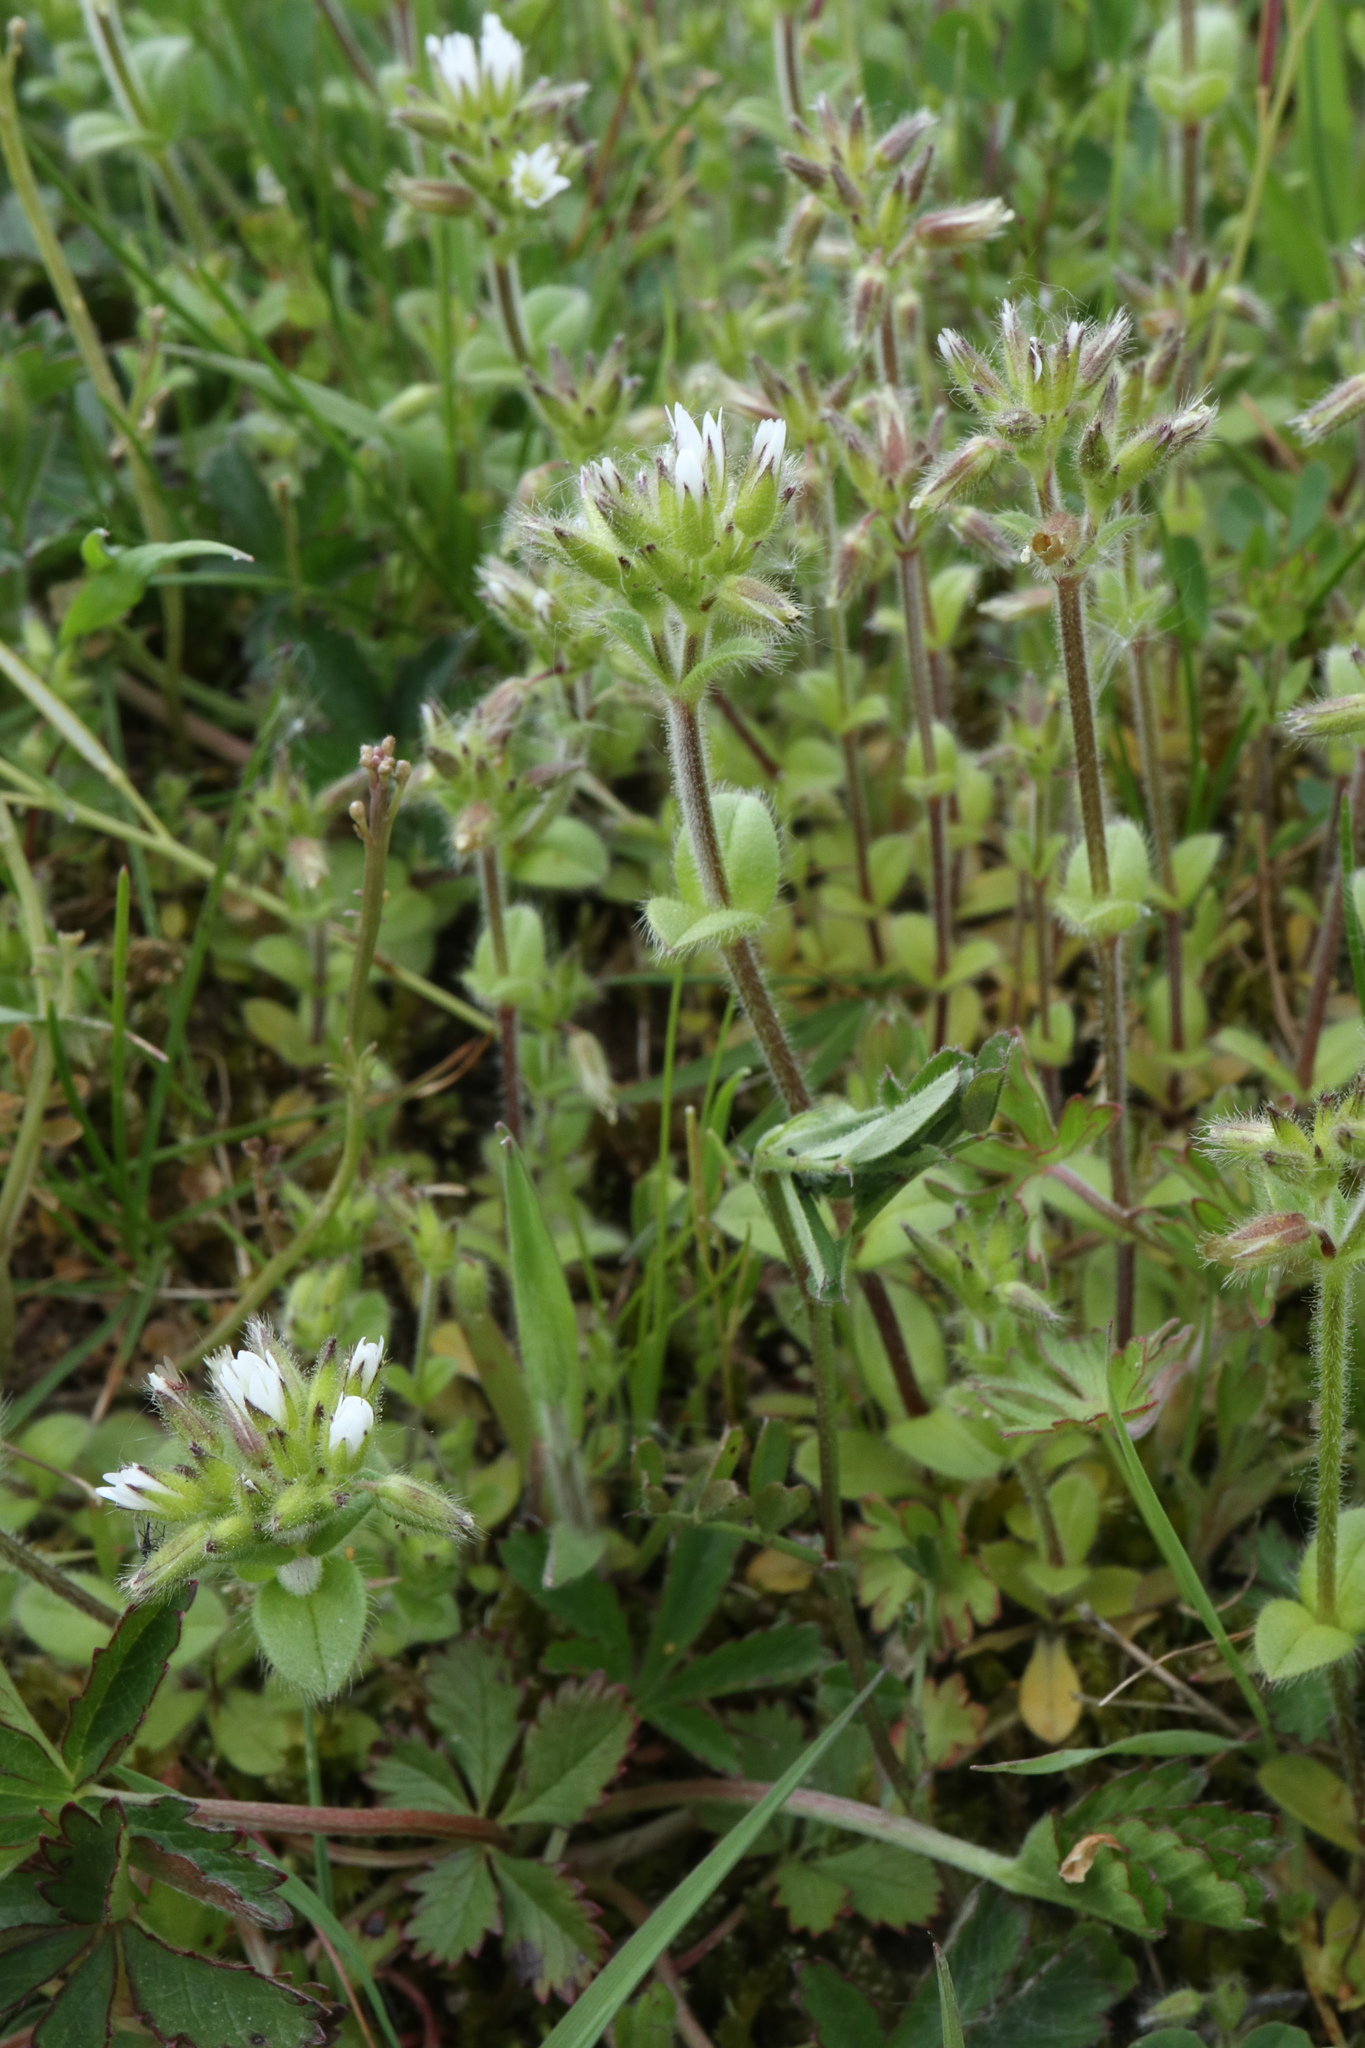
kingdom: Plantae
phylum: Tracheophyta
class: Magnoliopsida
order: Caryophyllales
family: Caryophyllaceae
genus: Cerastium
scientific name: Cerastium glomeratum
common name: Sticky chickweed
